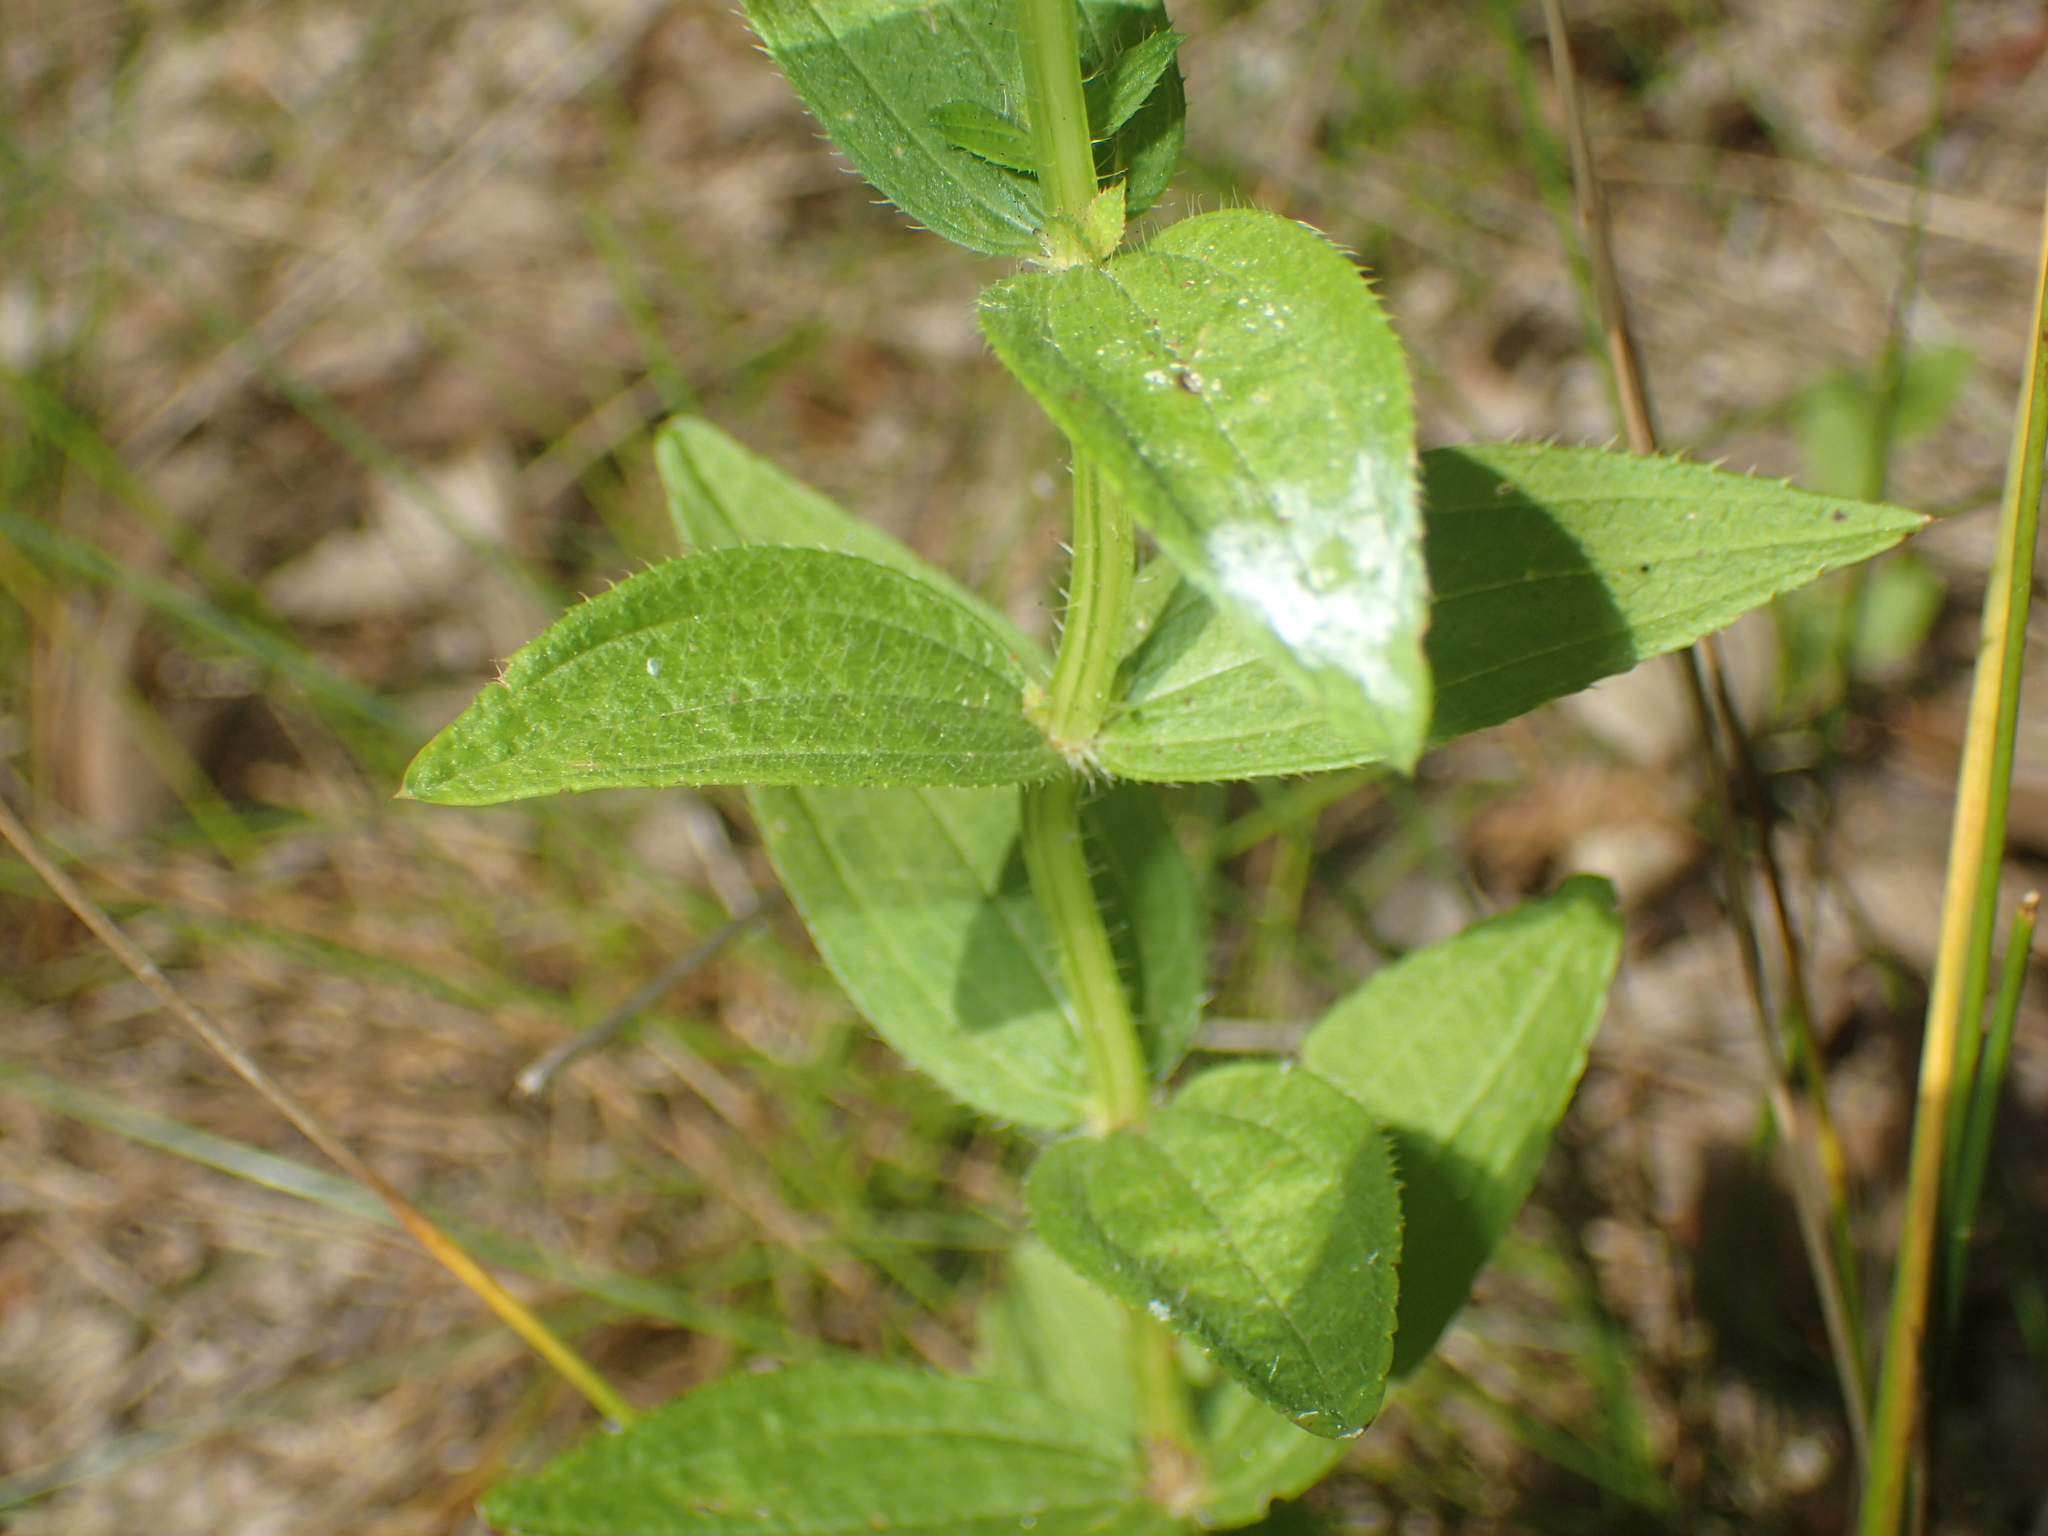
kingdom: Plantae
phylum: Tracheophyta
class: Magnoliopsida
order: Myrtales
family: Melastomataceae
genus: Rhexia
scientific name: Rhexia virginica
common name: Common meadow beauty
